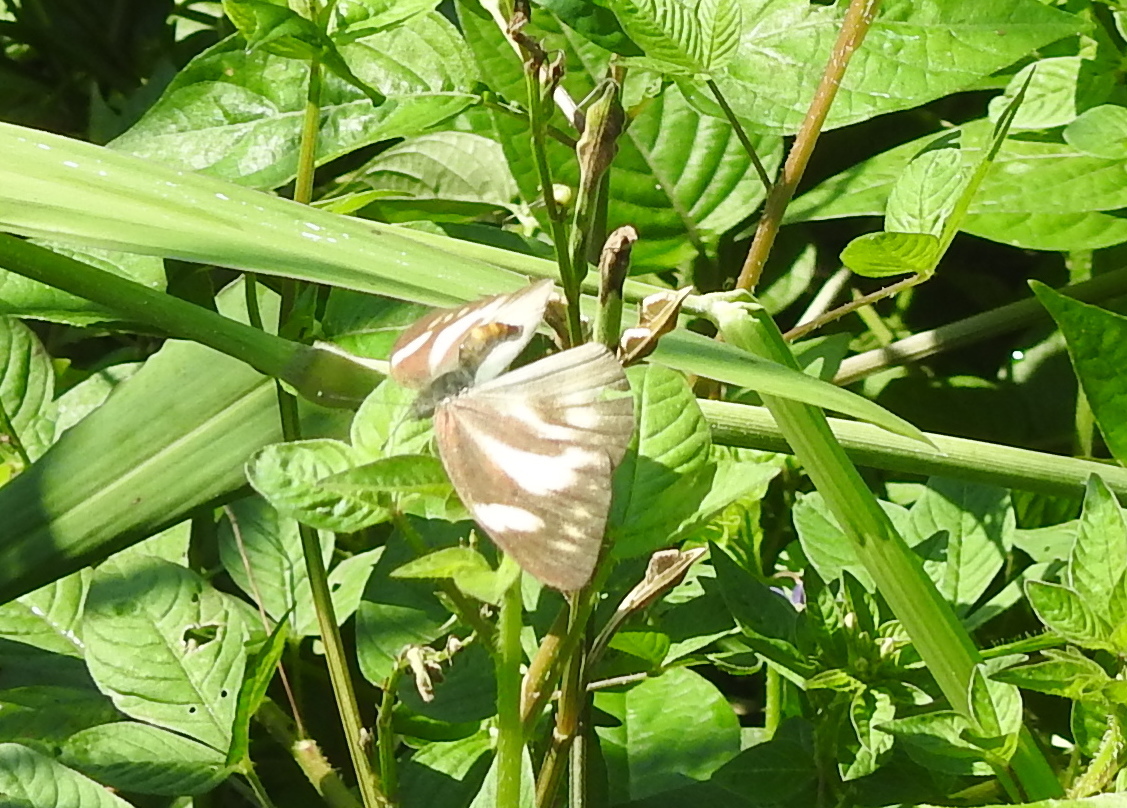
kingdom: Animalia
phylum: Arthropoda
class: Insecta
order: Lepidoptera
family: Pieridae
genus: Appias
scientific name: Appias libythea
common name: Striped albatross
